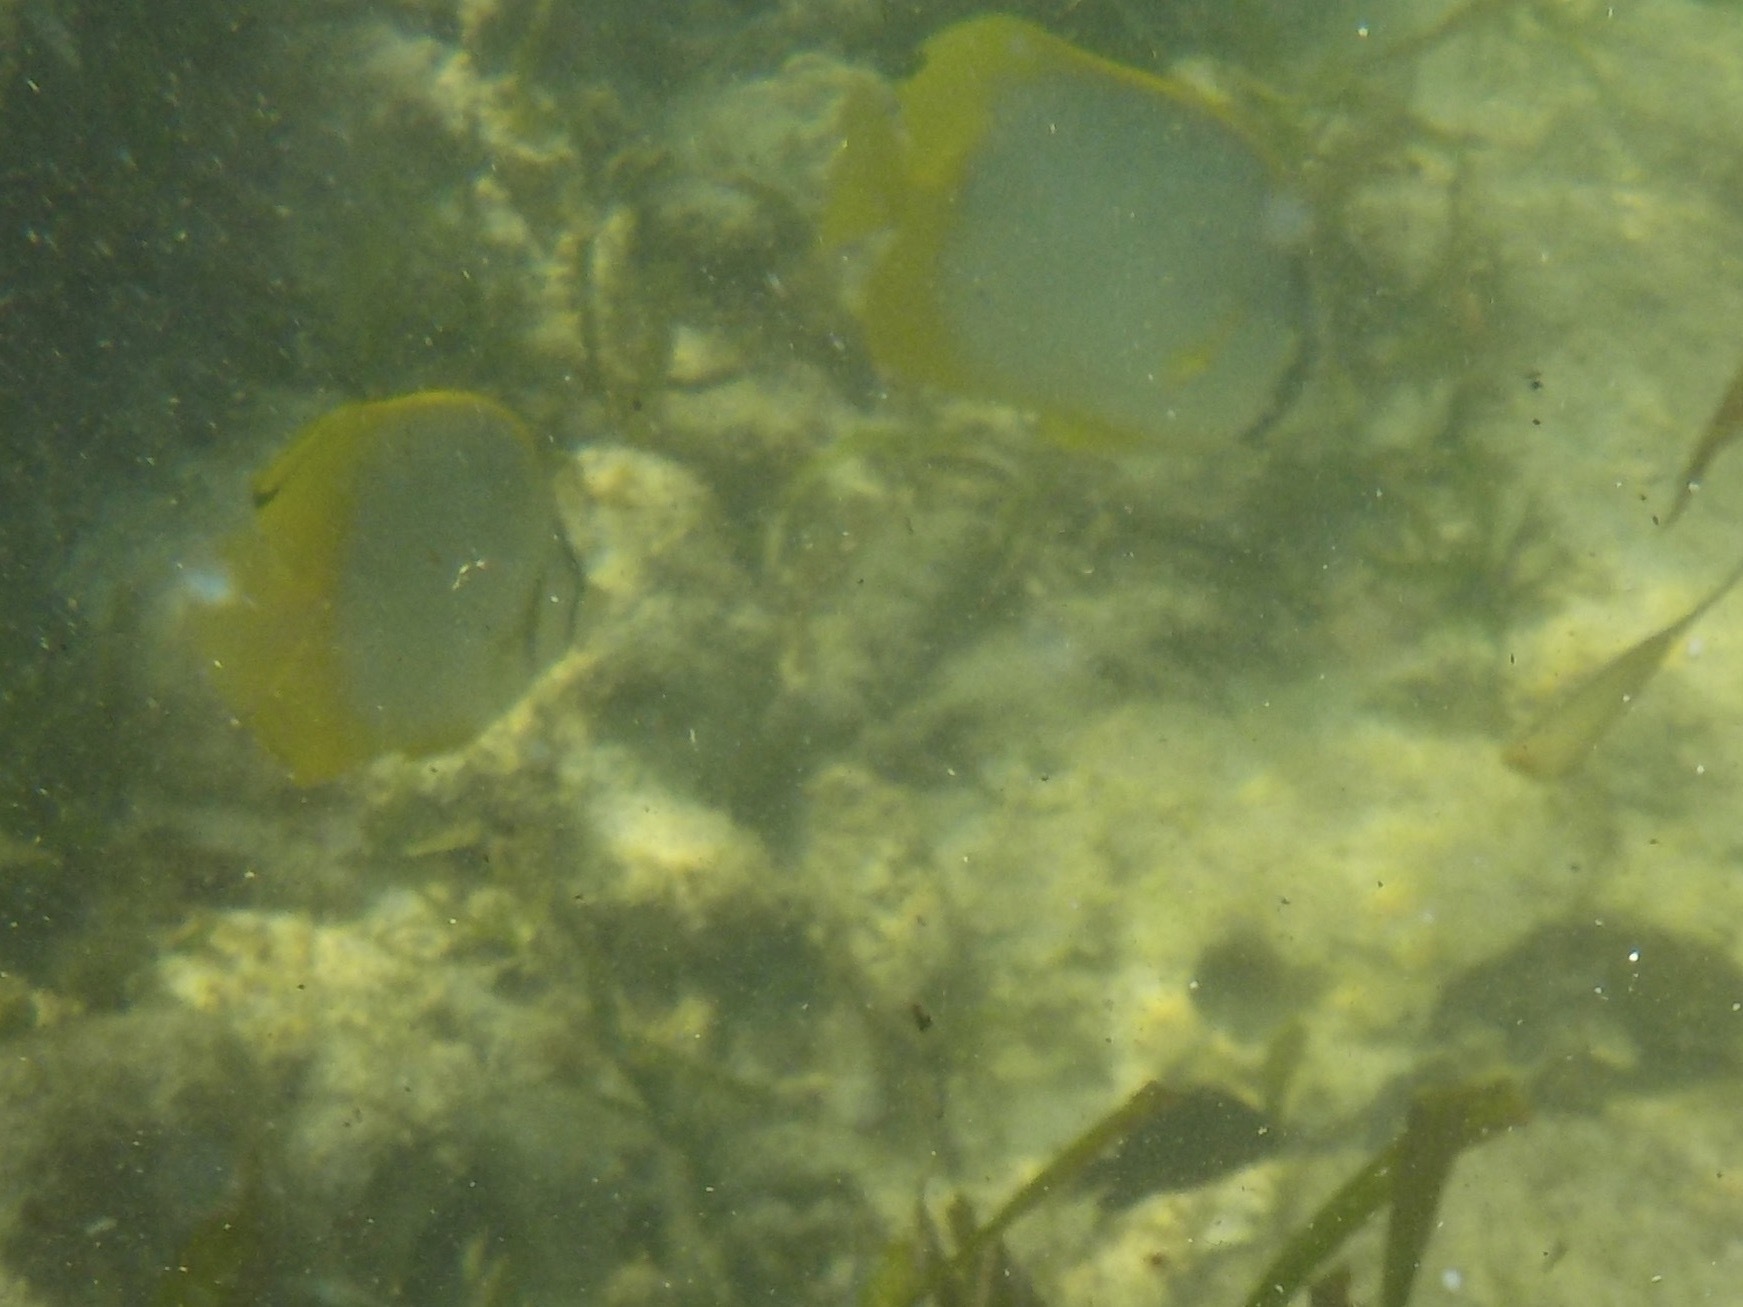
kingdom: Animalia
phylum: Chordata
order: Perciformes
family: Chaetodontidae
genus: Chaetodon
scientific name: Chaetodon ocellatus
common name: Spotfin butterflyfish
